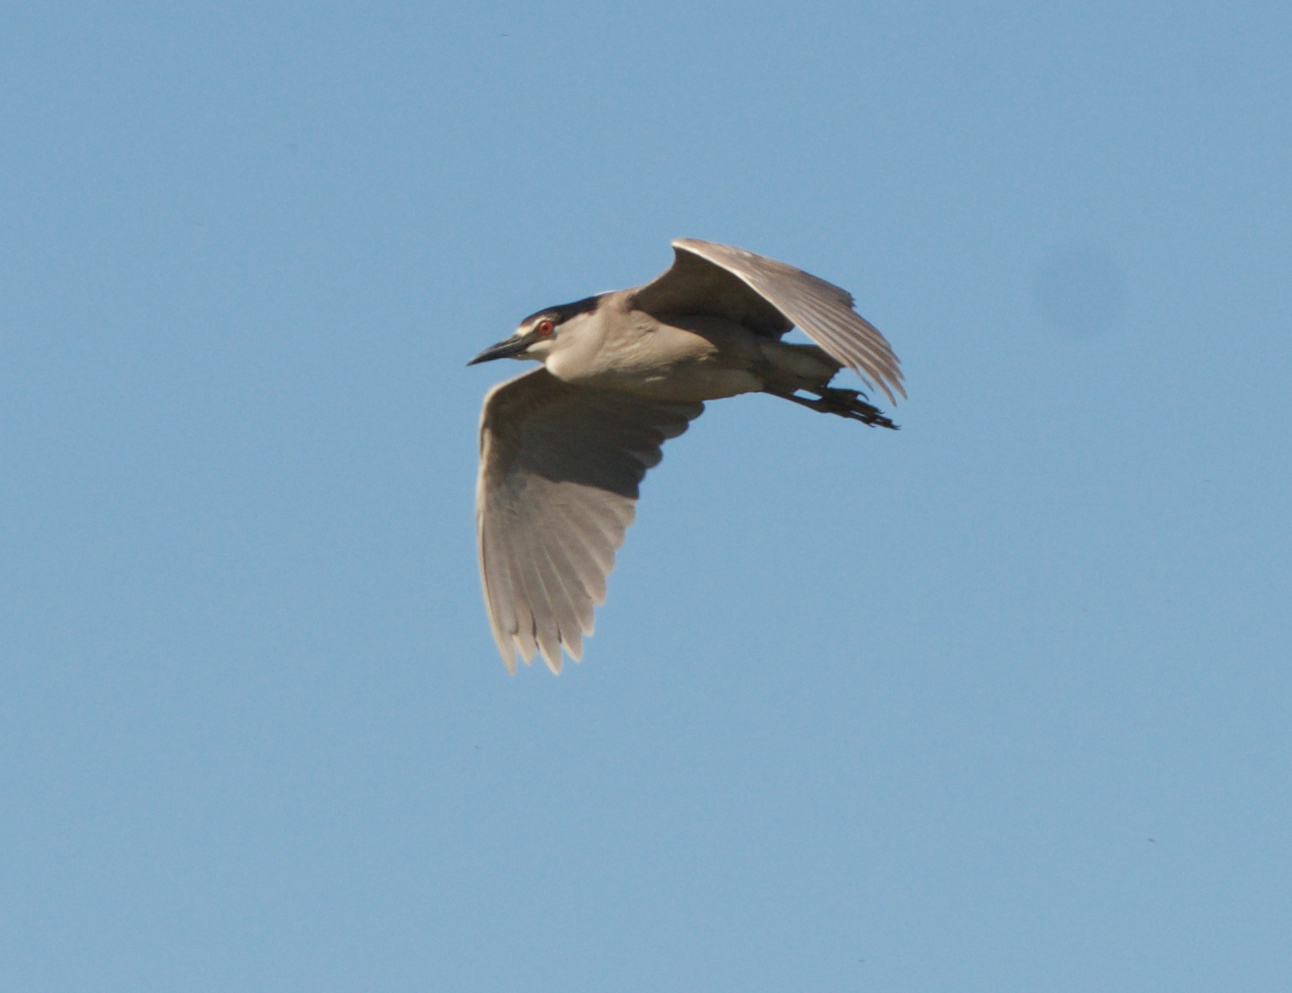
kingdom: Animalia
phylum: Chordata
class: Aves
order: Pelecaniformes
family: Ardeidae
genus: Nycticorax
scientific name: Nycticorax nycticorax
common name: Black-crowned night heron
